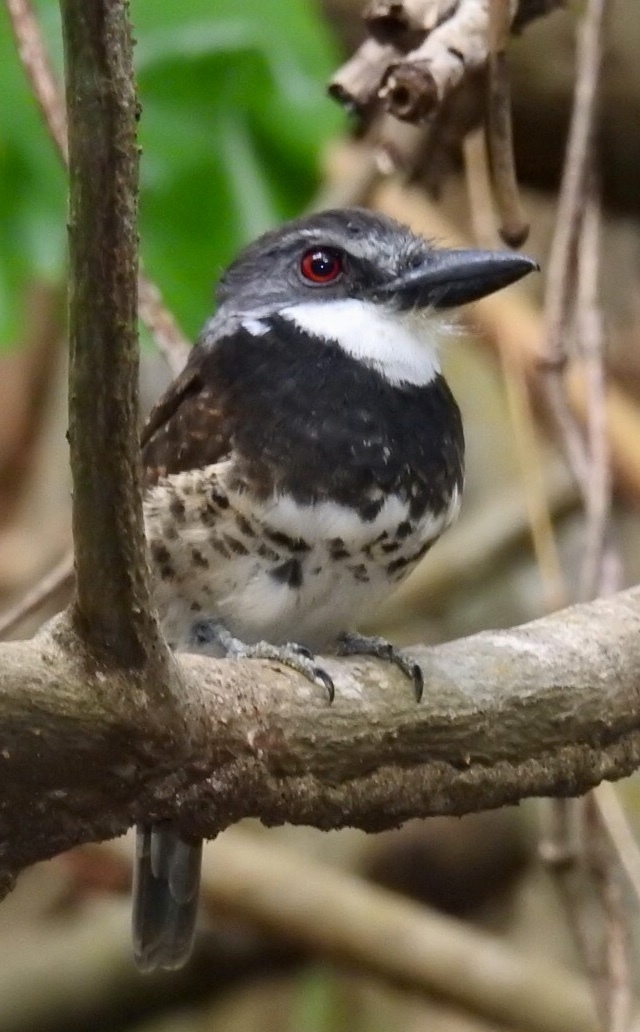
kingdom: Animalia
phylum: Chordata
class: Aves
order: Piciformes
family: Bucconidae
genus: Bucco
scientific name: Bucco noanamae
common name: Sooty-capped puffbird
